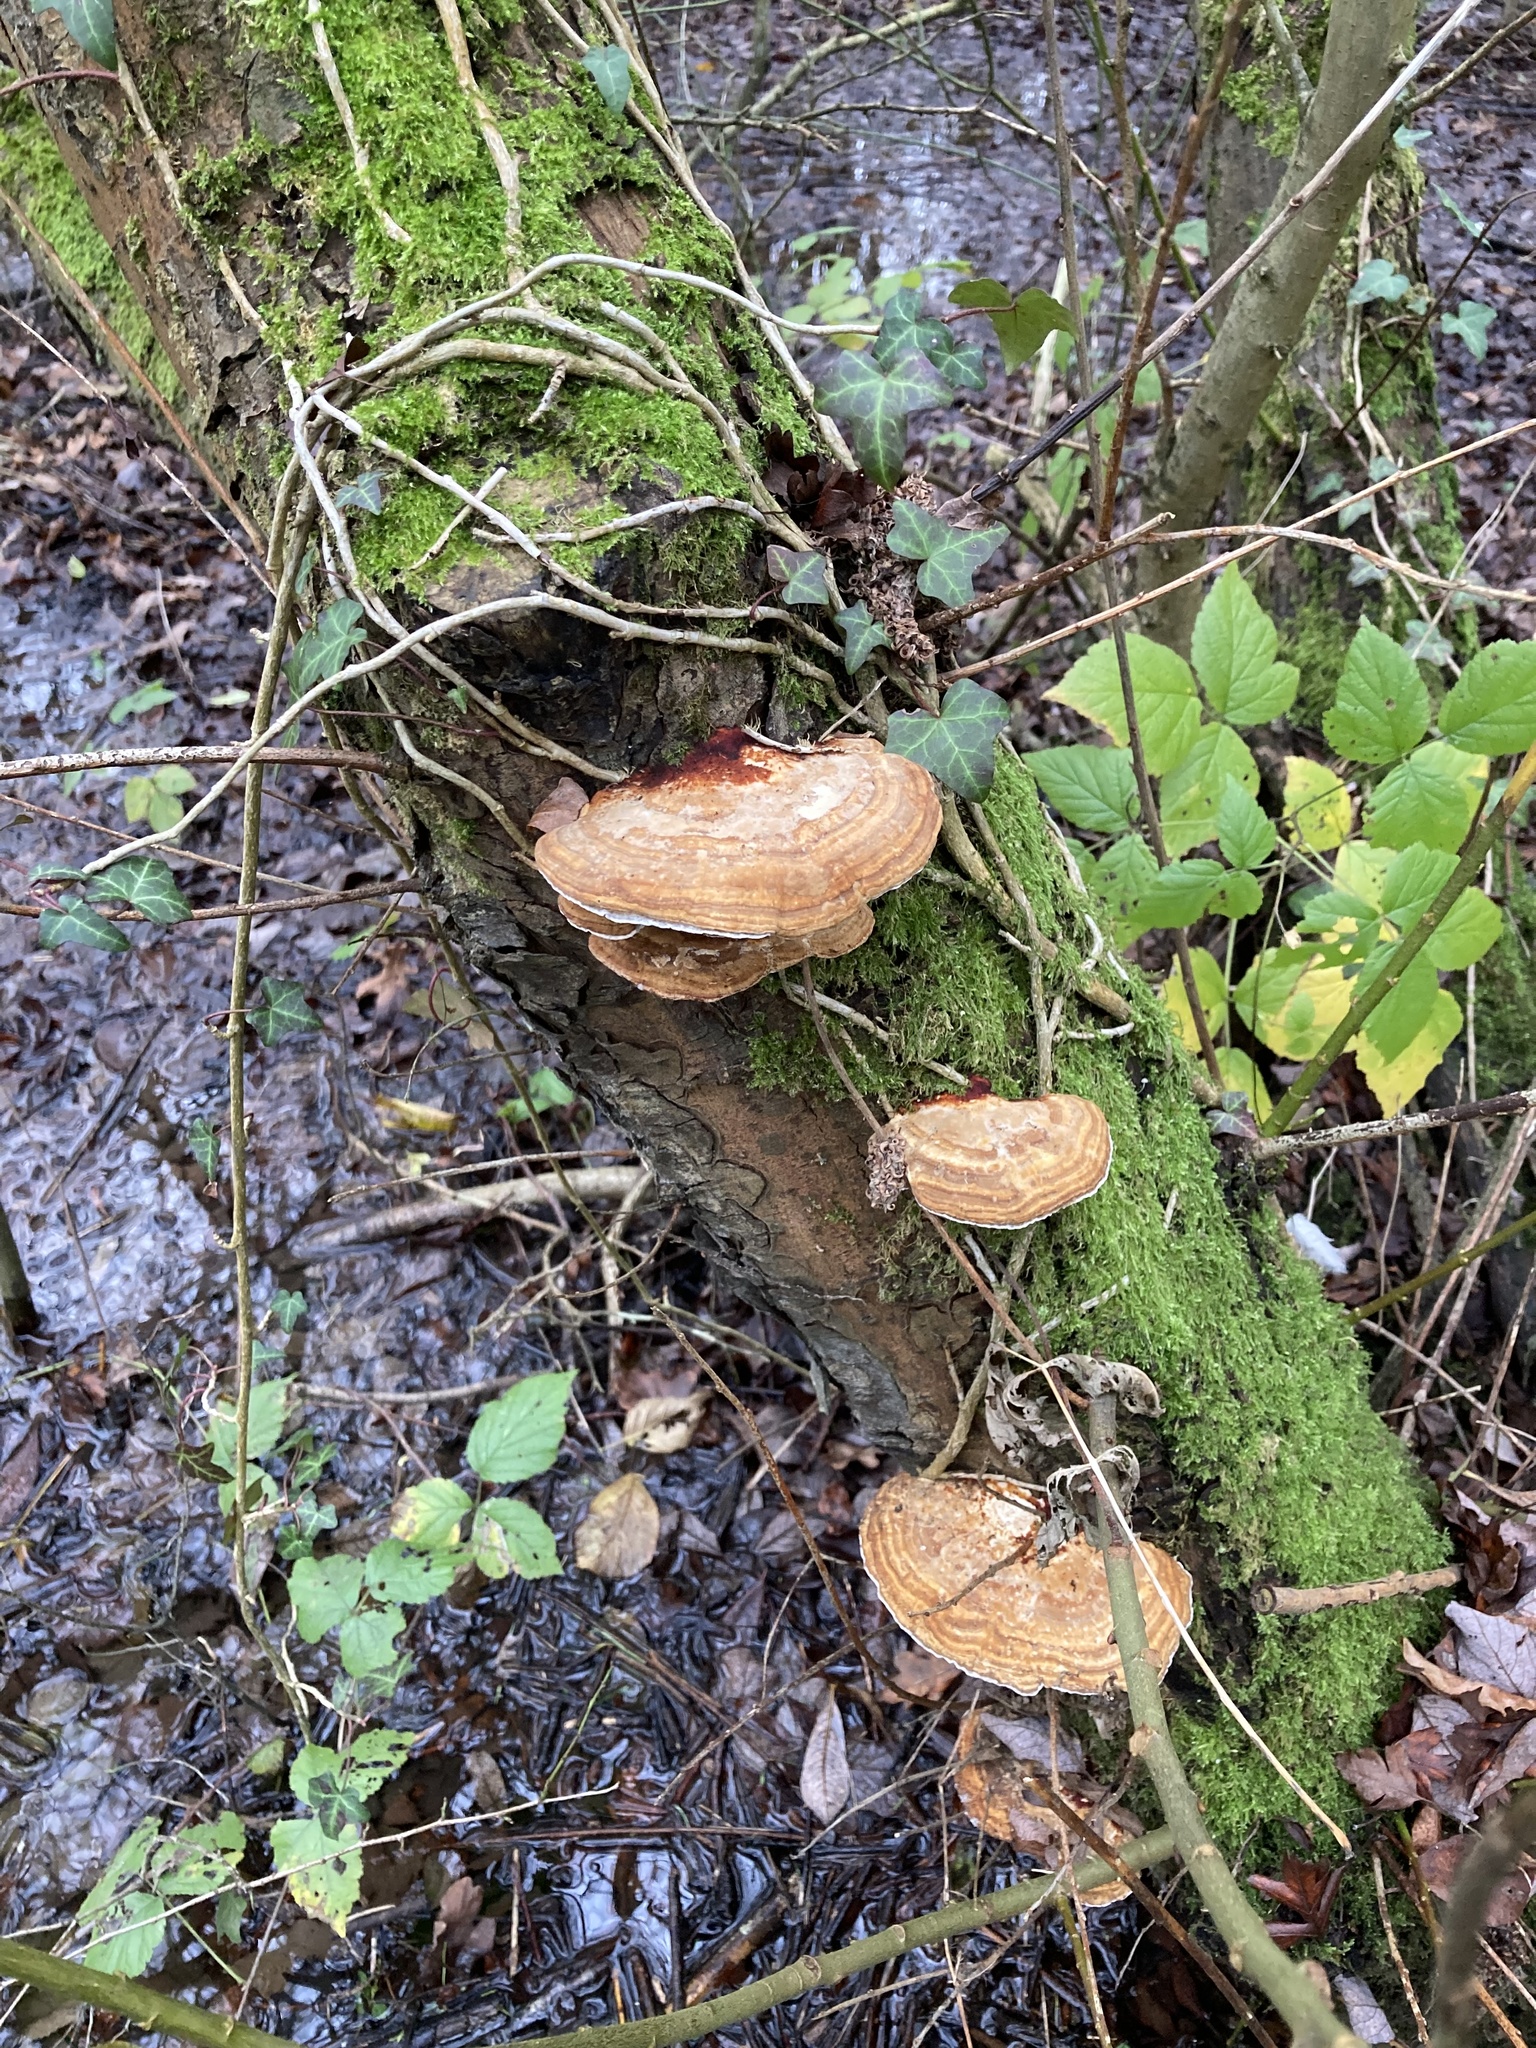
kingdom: Fungi
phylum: Basidiomycota
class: Agaricomycetes
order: Polyporales
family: Polyporaceae
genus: Daedaleopsis
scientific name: Daedaleopsis confragosa
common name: Blushing bracket
